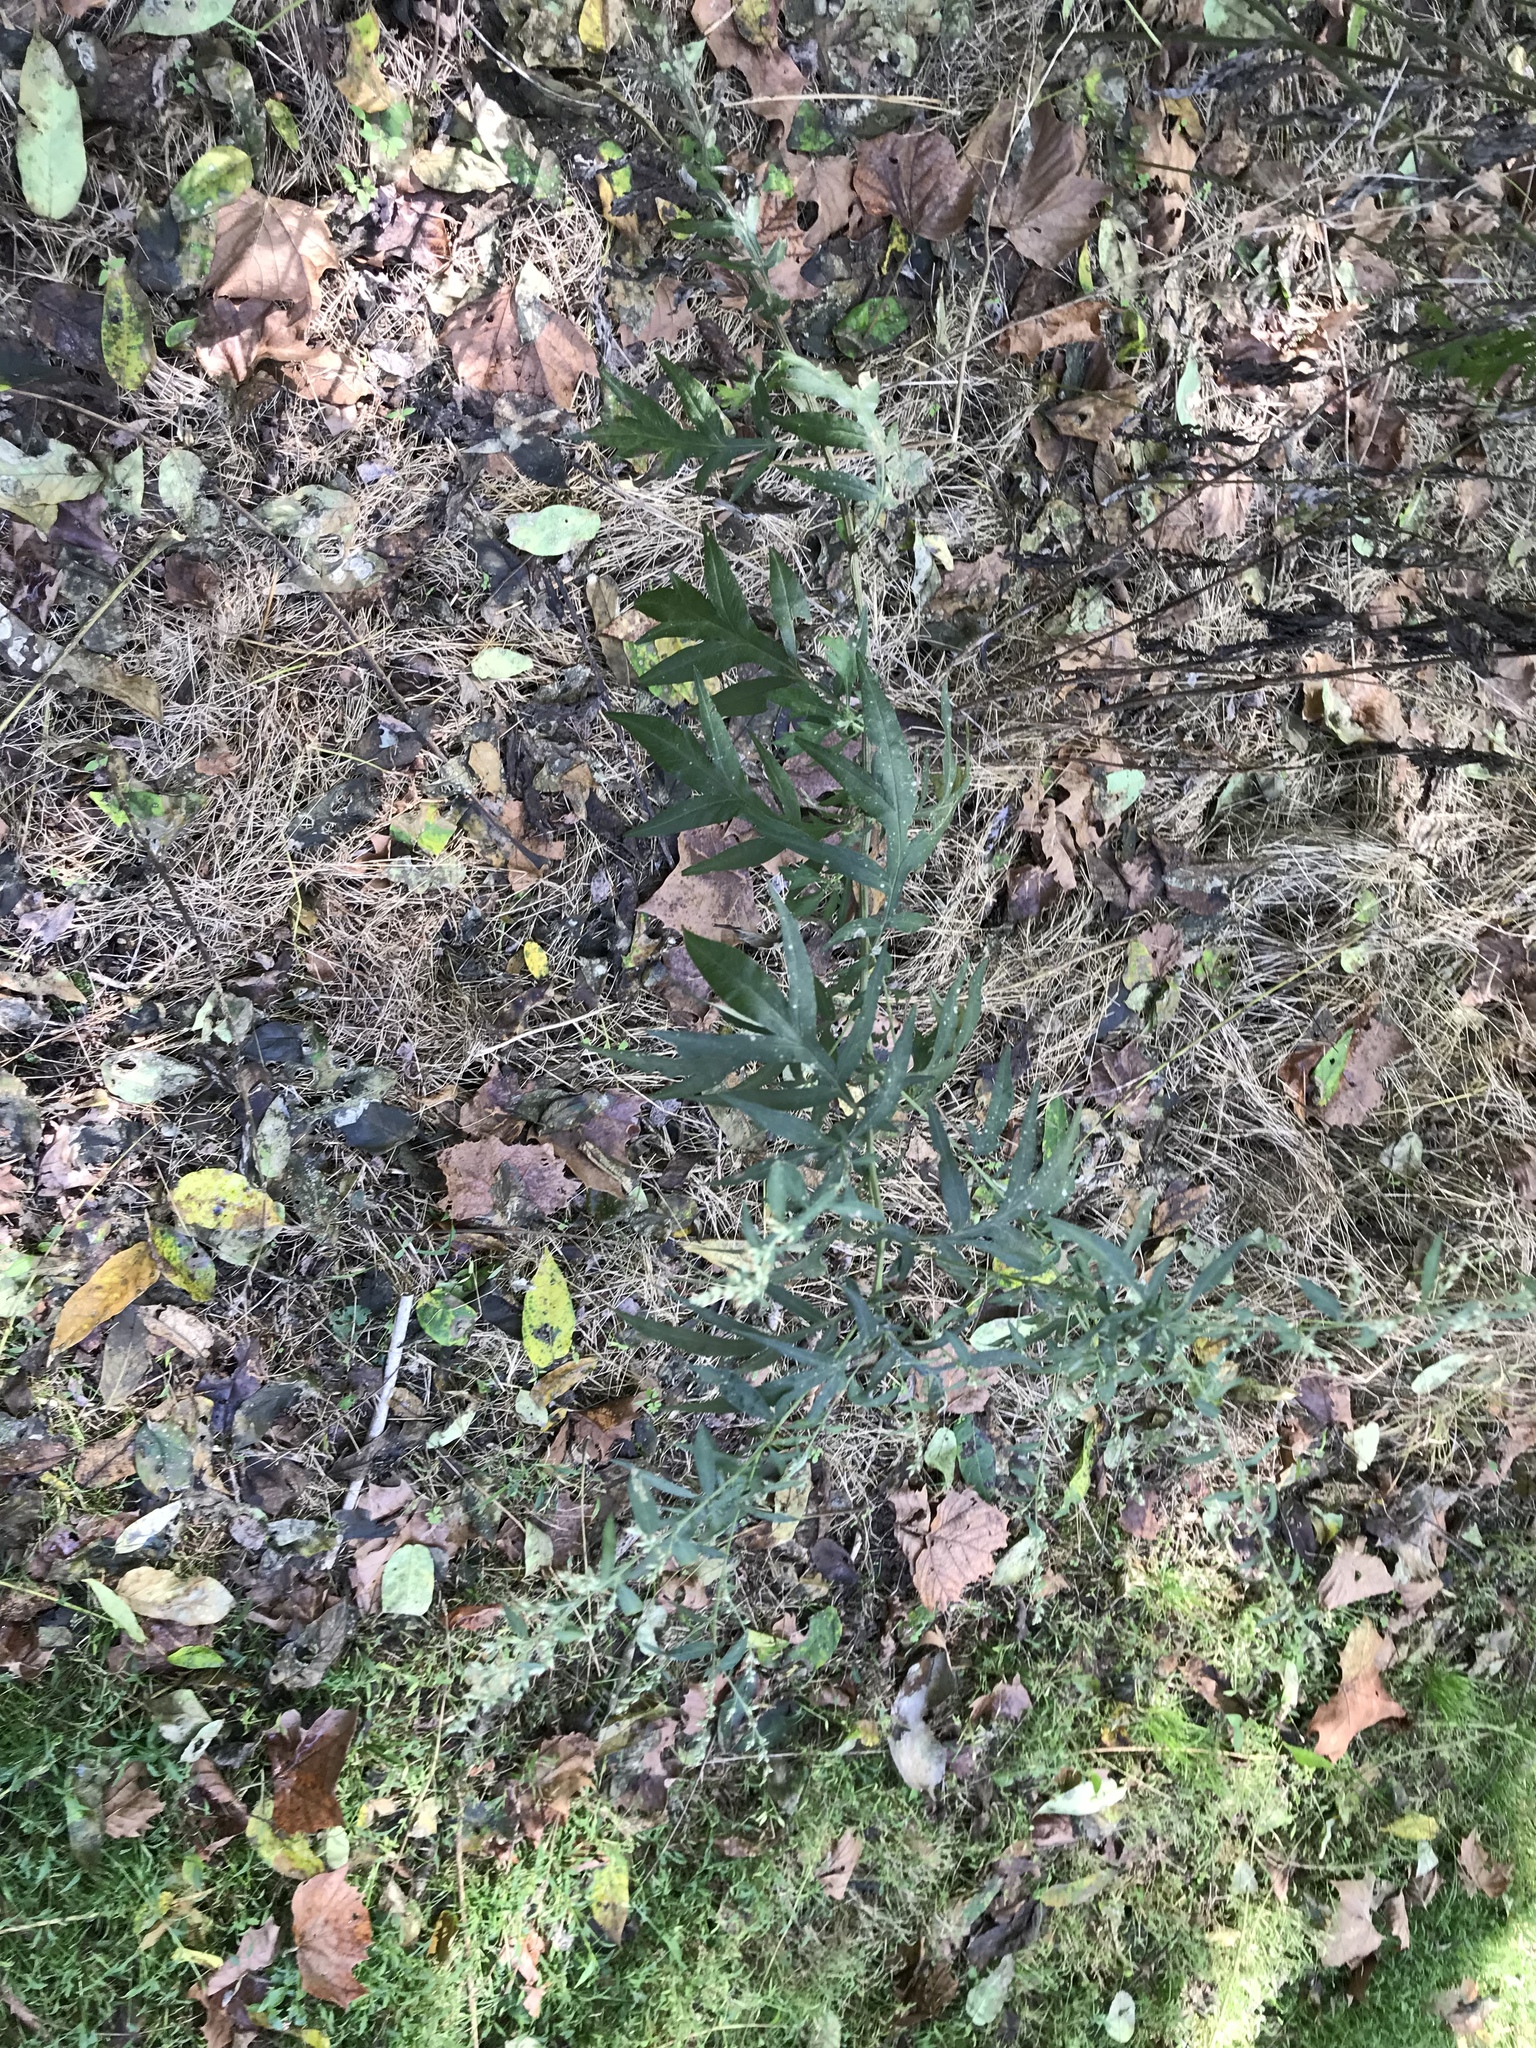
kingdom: Plantae
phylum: Tracheophyta
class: Magnoliopsida
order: Asterales
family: Asteraceae
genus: Artemisia
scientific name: Artemisia vulgaris
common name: Mugwort
